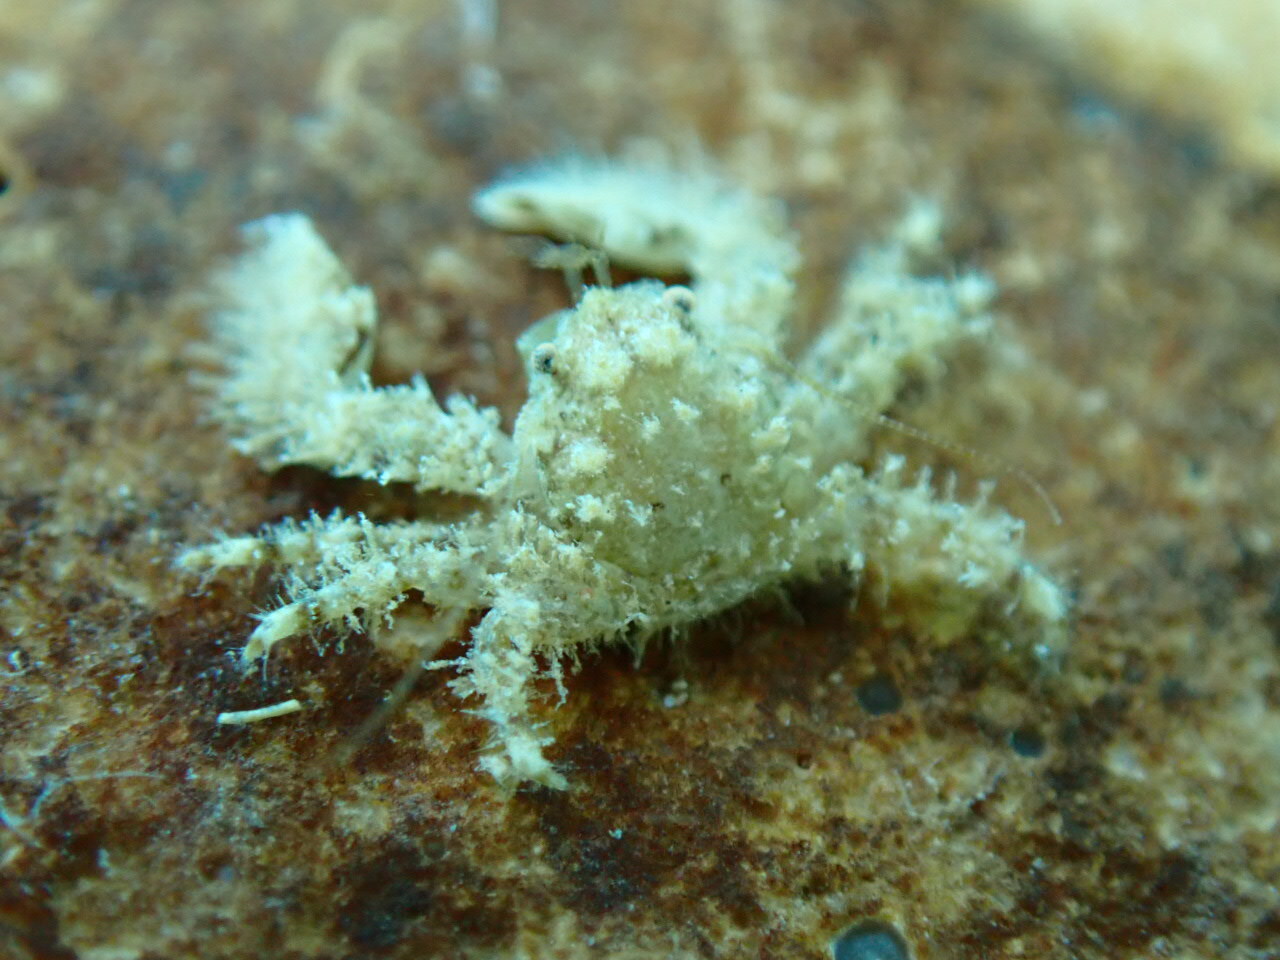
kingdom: Animalia
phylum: Arthropoda
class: Malacostraca
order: Decapoda
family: Porcellanidae
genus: Porcellana
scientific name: Porcellana platycheles
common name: Porcelain crab
